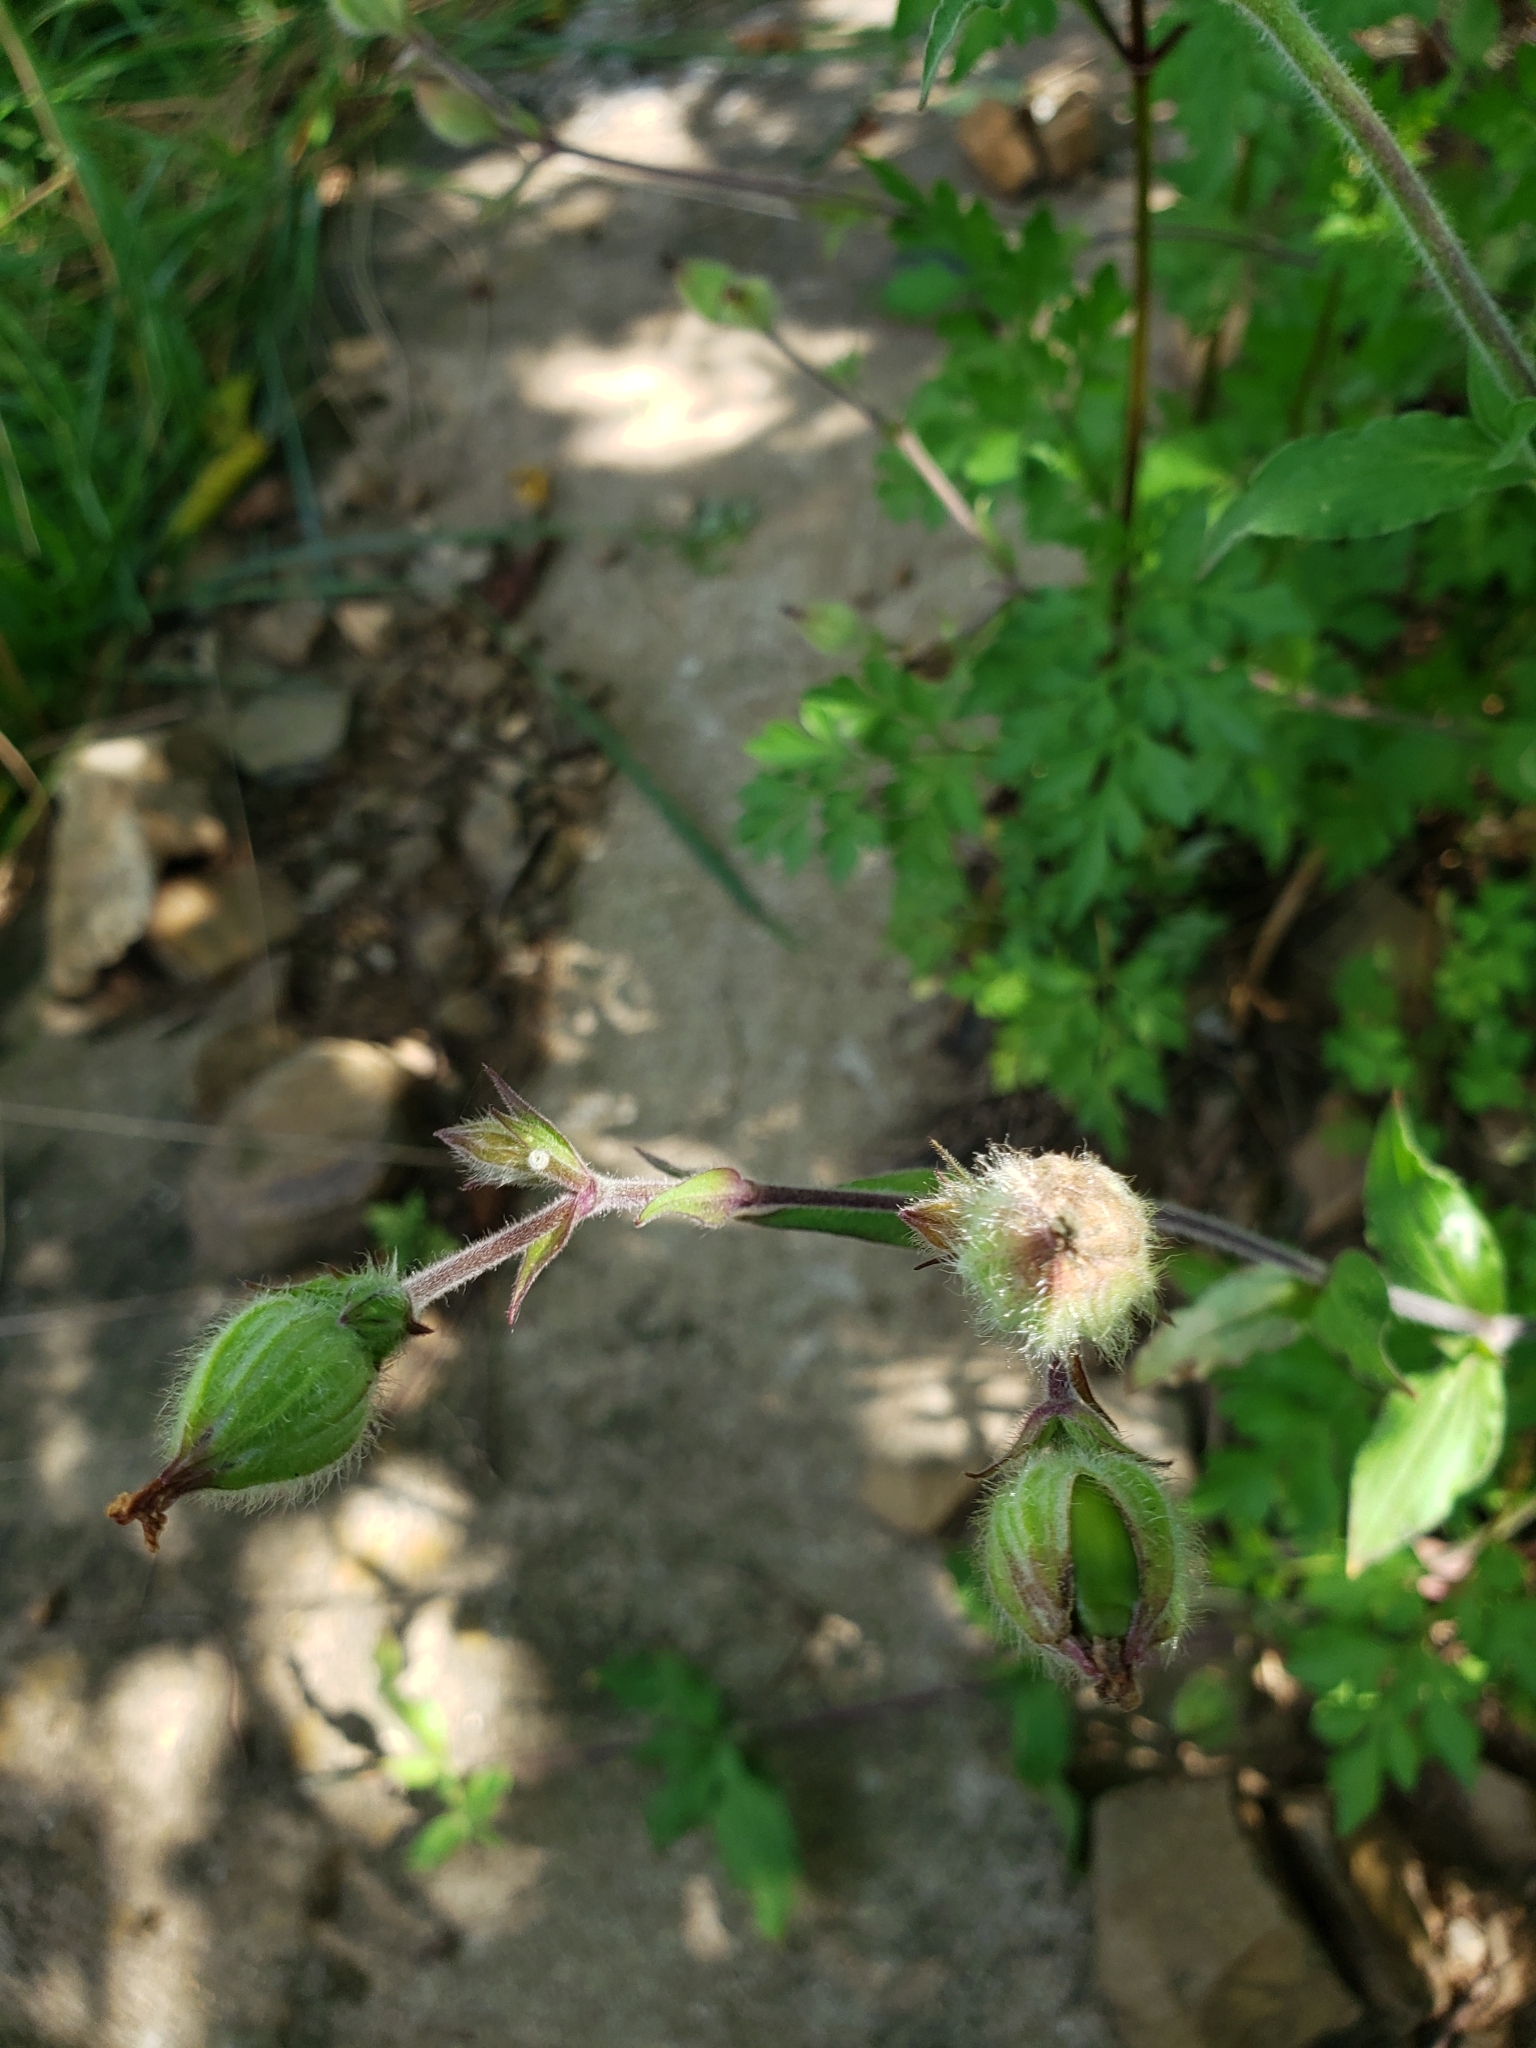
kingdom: Plantae
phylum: Tracheophyta
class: Magnoliopsida
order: Caryophyllales
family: Caryophyllaceae
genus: Silene
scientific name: Silene vulgaris
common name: Bladder campion
